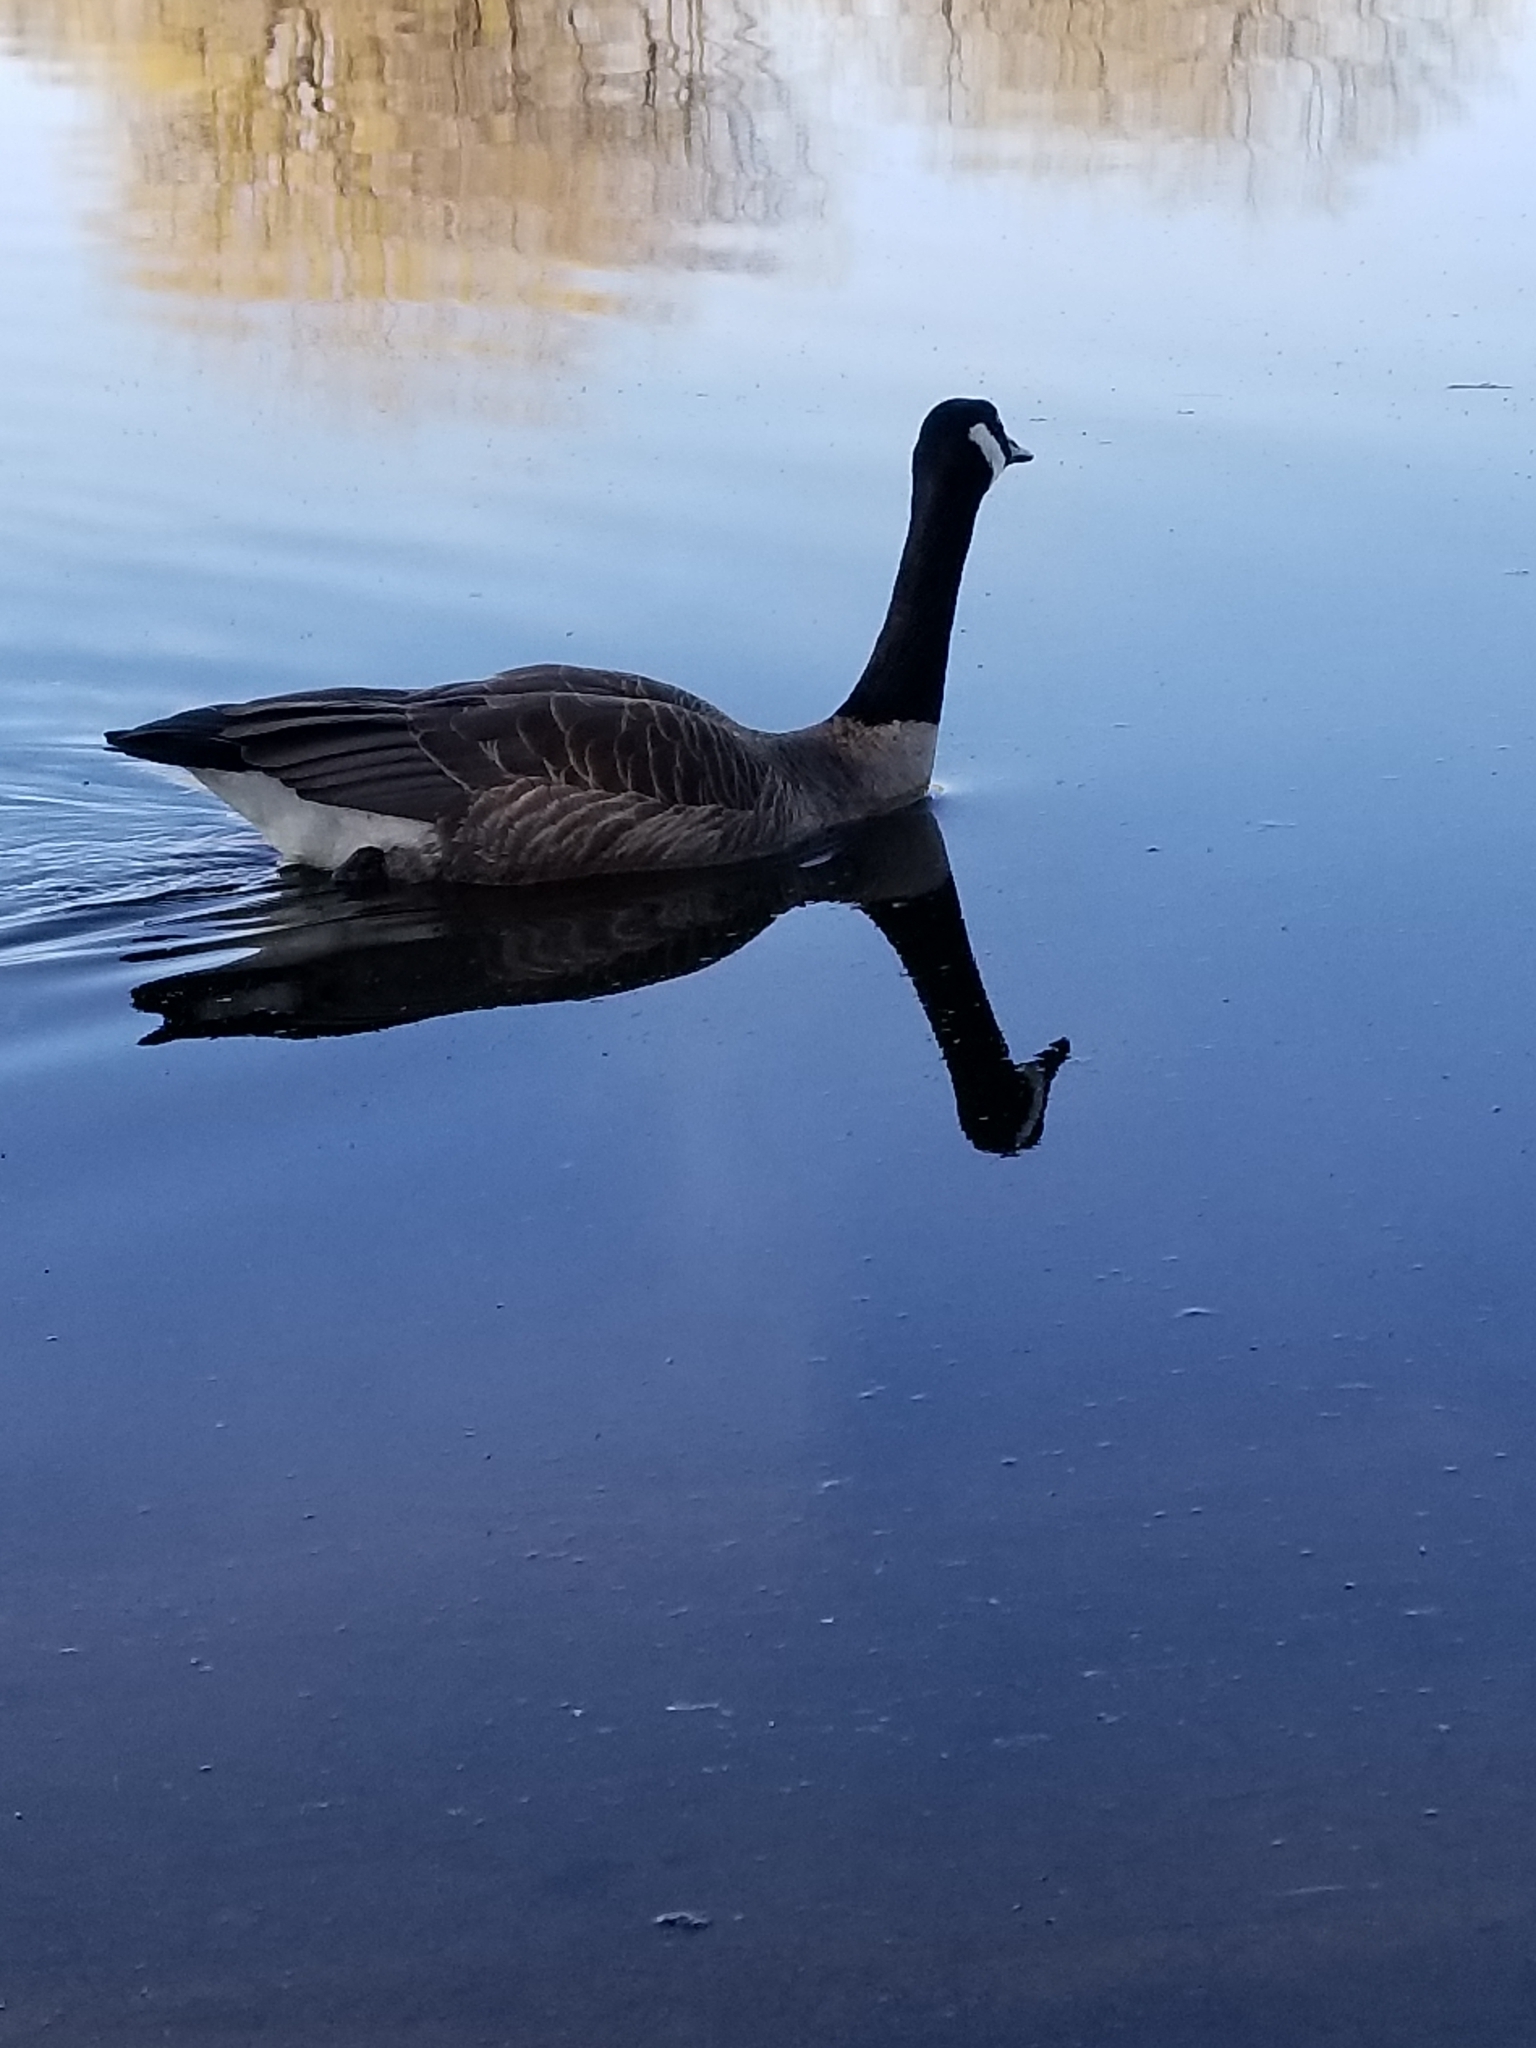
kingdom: Animalia
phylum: Chordata
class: Aves
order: Anseriformes
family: Anatidae
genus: Branta
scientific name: Branta canadensis
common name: Canada goose
